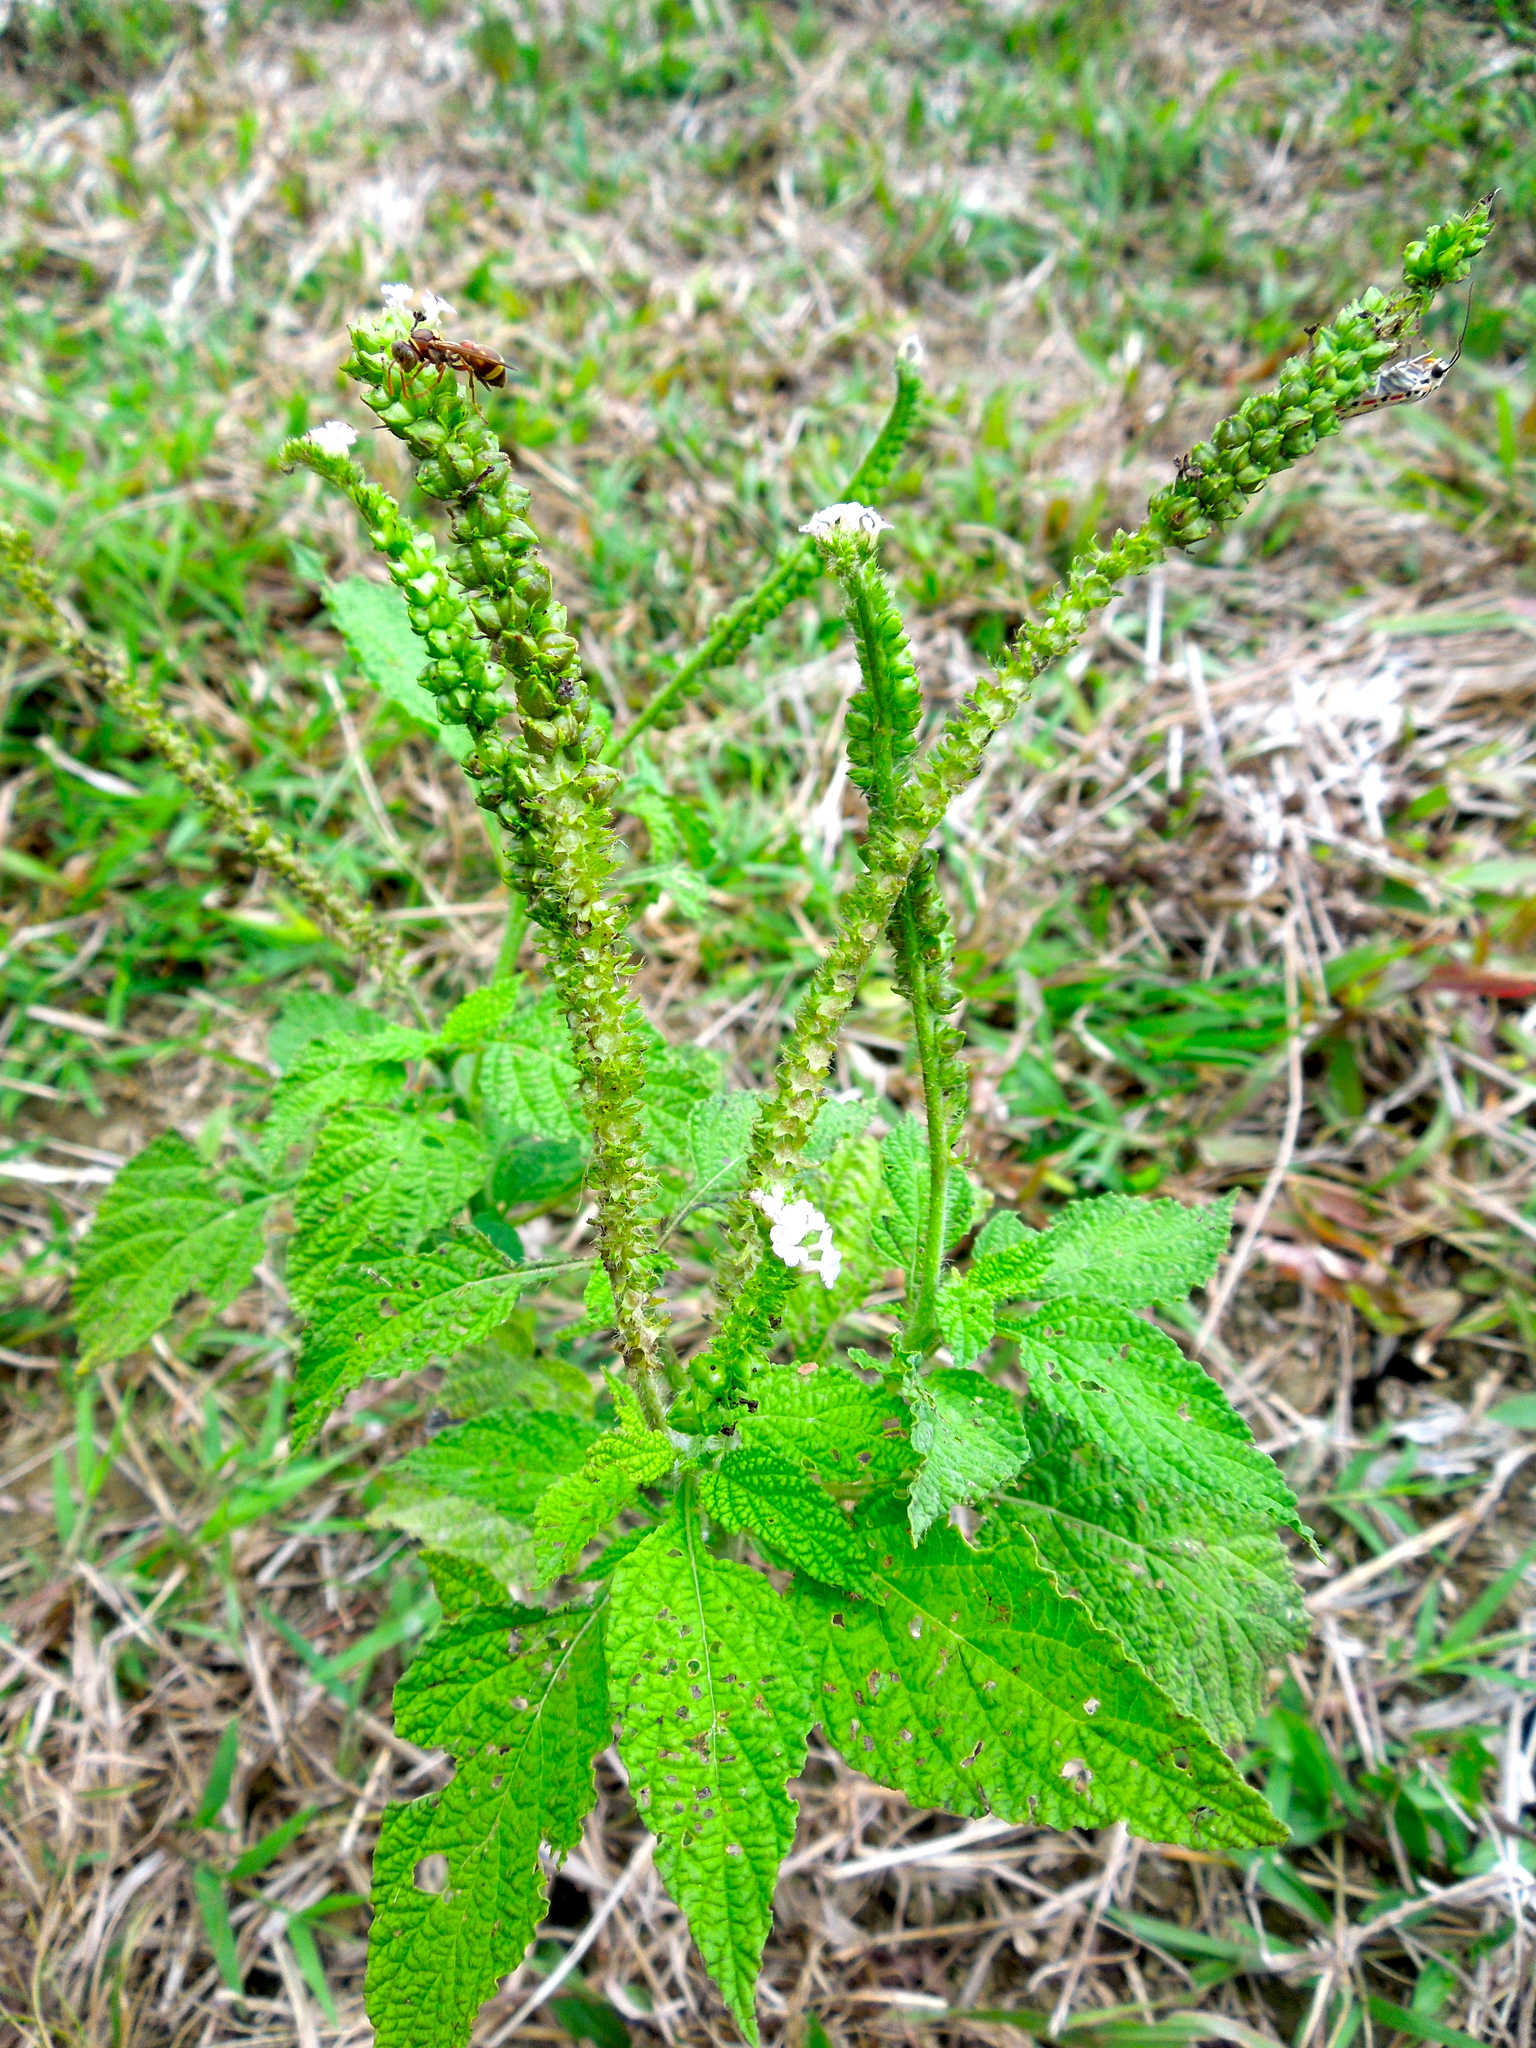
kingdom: Plantae
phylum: Tracheophyta
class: Magnoliopsida
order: Boraginales
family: Heliotropiaceae
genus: Heliotropium
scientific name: Heliotropium indicum
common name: Indian heliotrope
